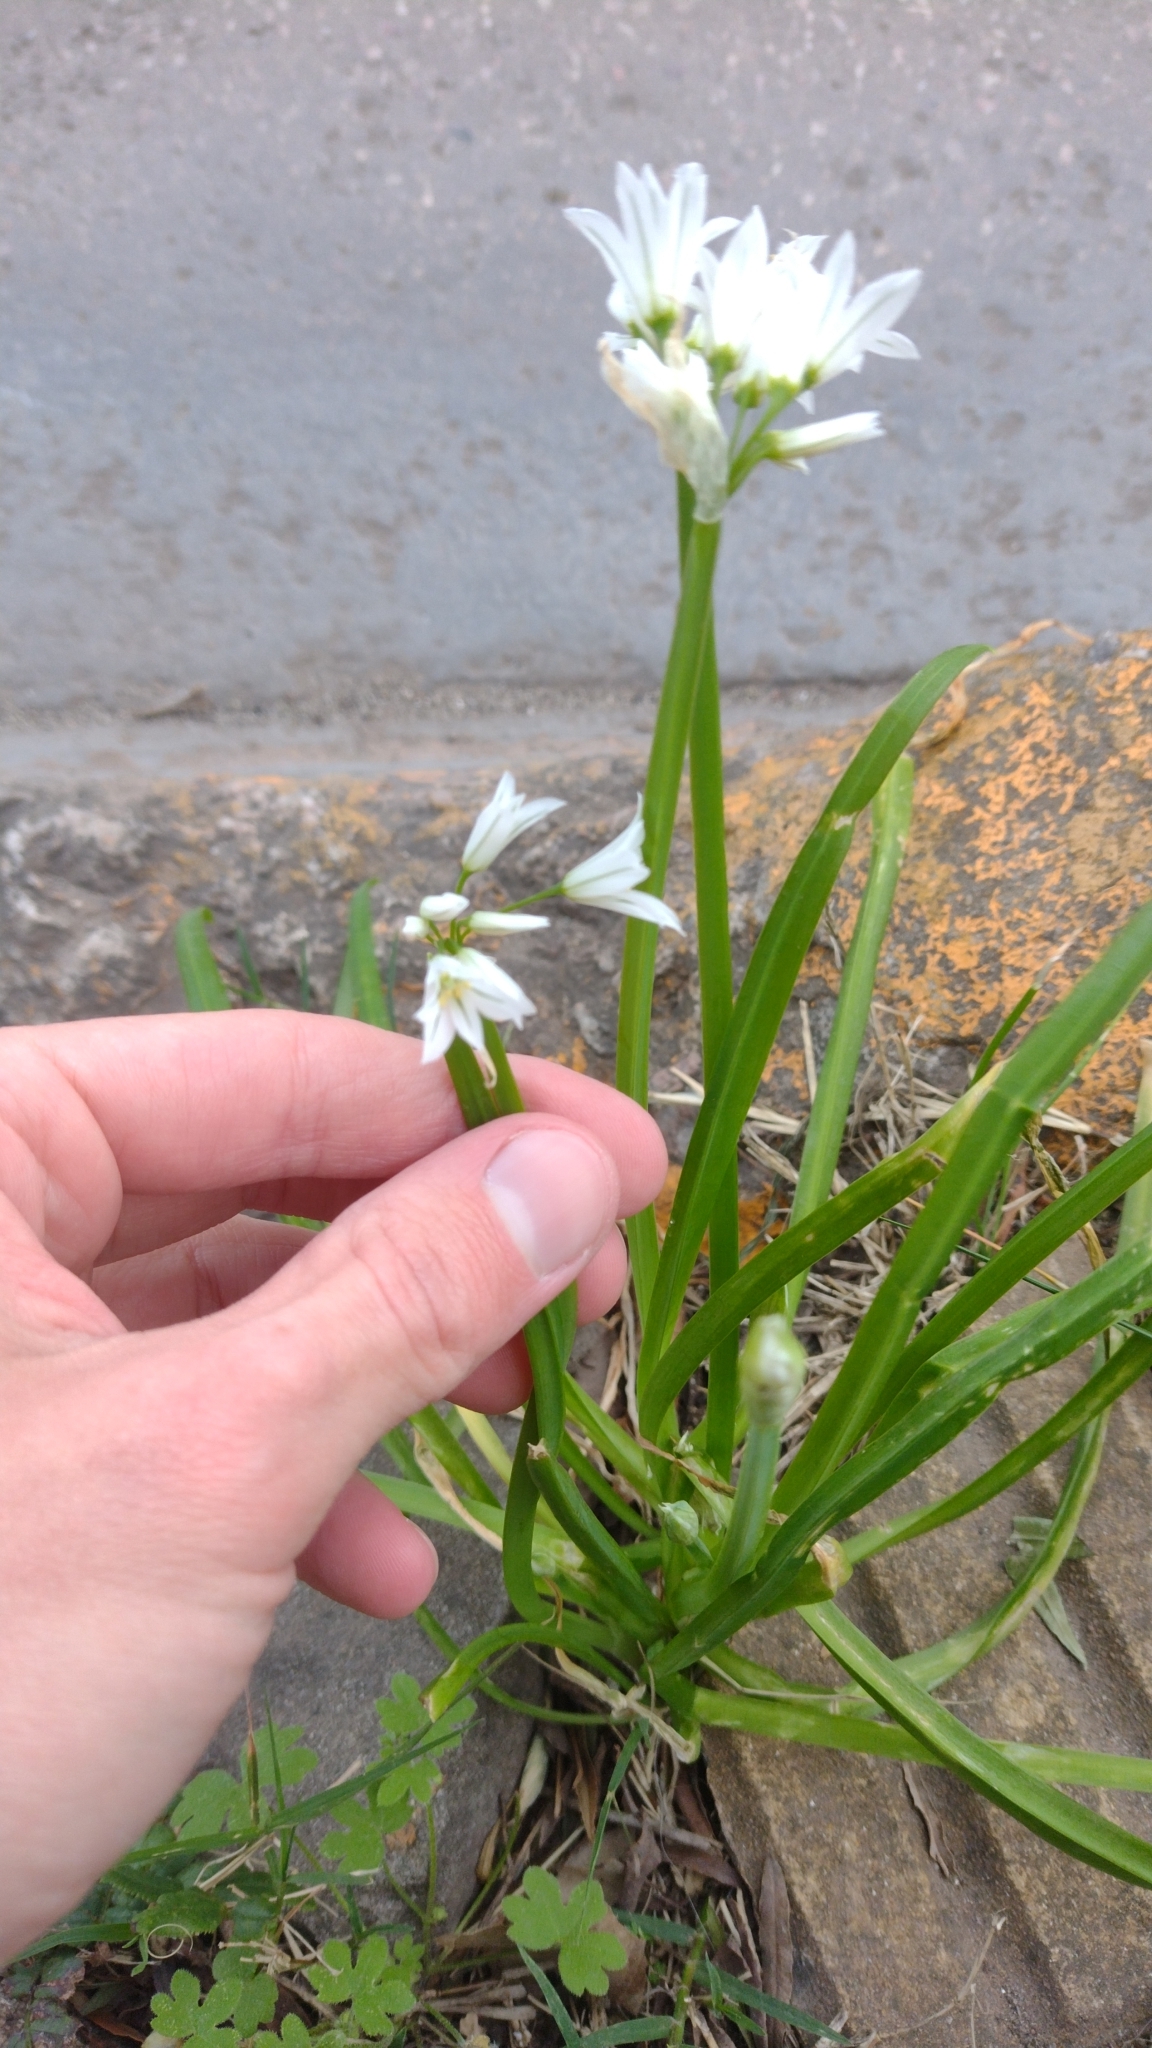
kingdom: Plantae
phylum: Tracheophyta
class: Liliopsida
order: Asparagales
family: Amaryllidaceae
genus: Allium
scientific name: Allium triquetrum
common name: Three-cornered garlic
